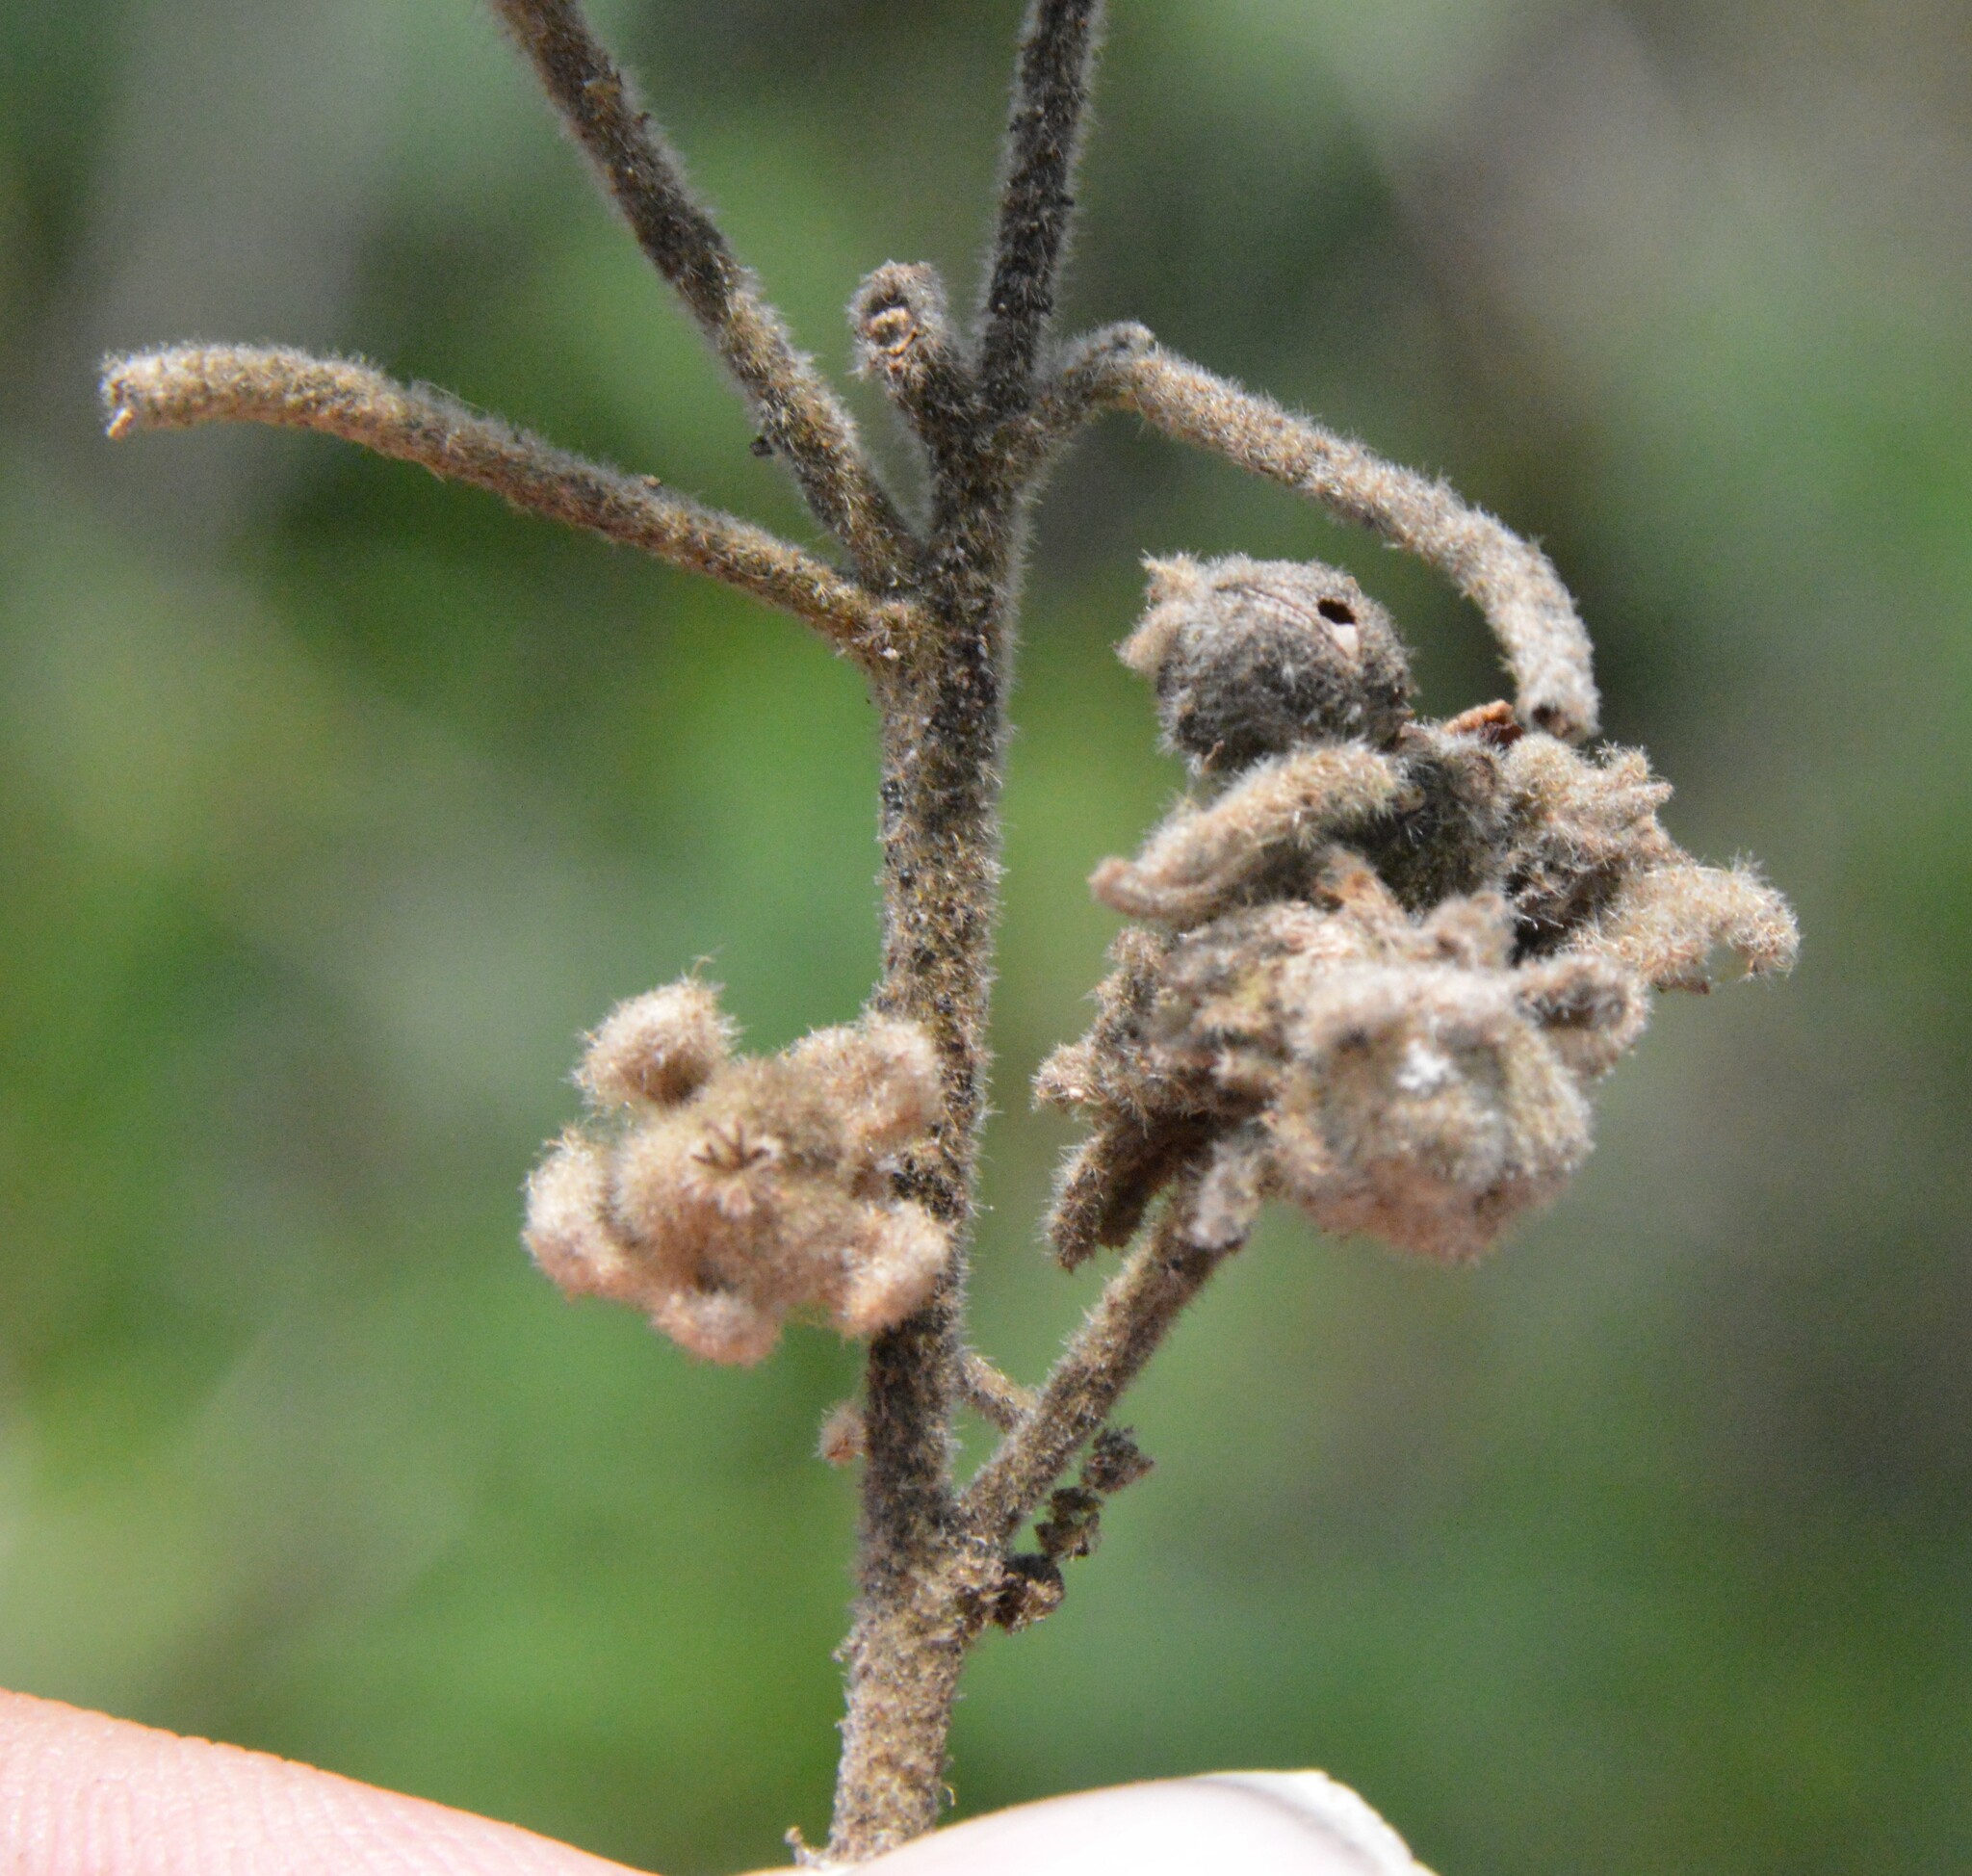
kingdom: Plantae
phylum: Tracheophyta
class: Magnoliopsida
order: Malpighiales
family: Euphorbiaceae
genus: Croton
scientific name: Croton lindheimeri
